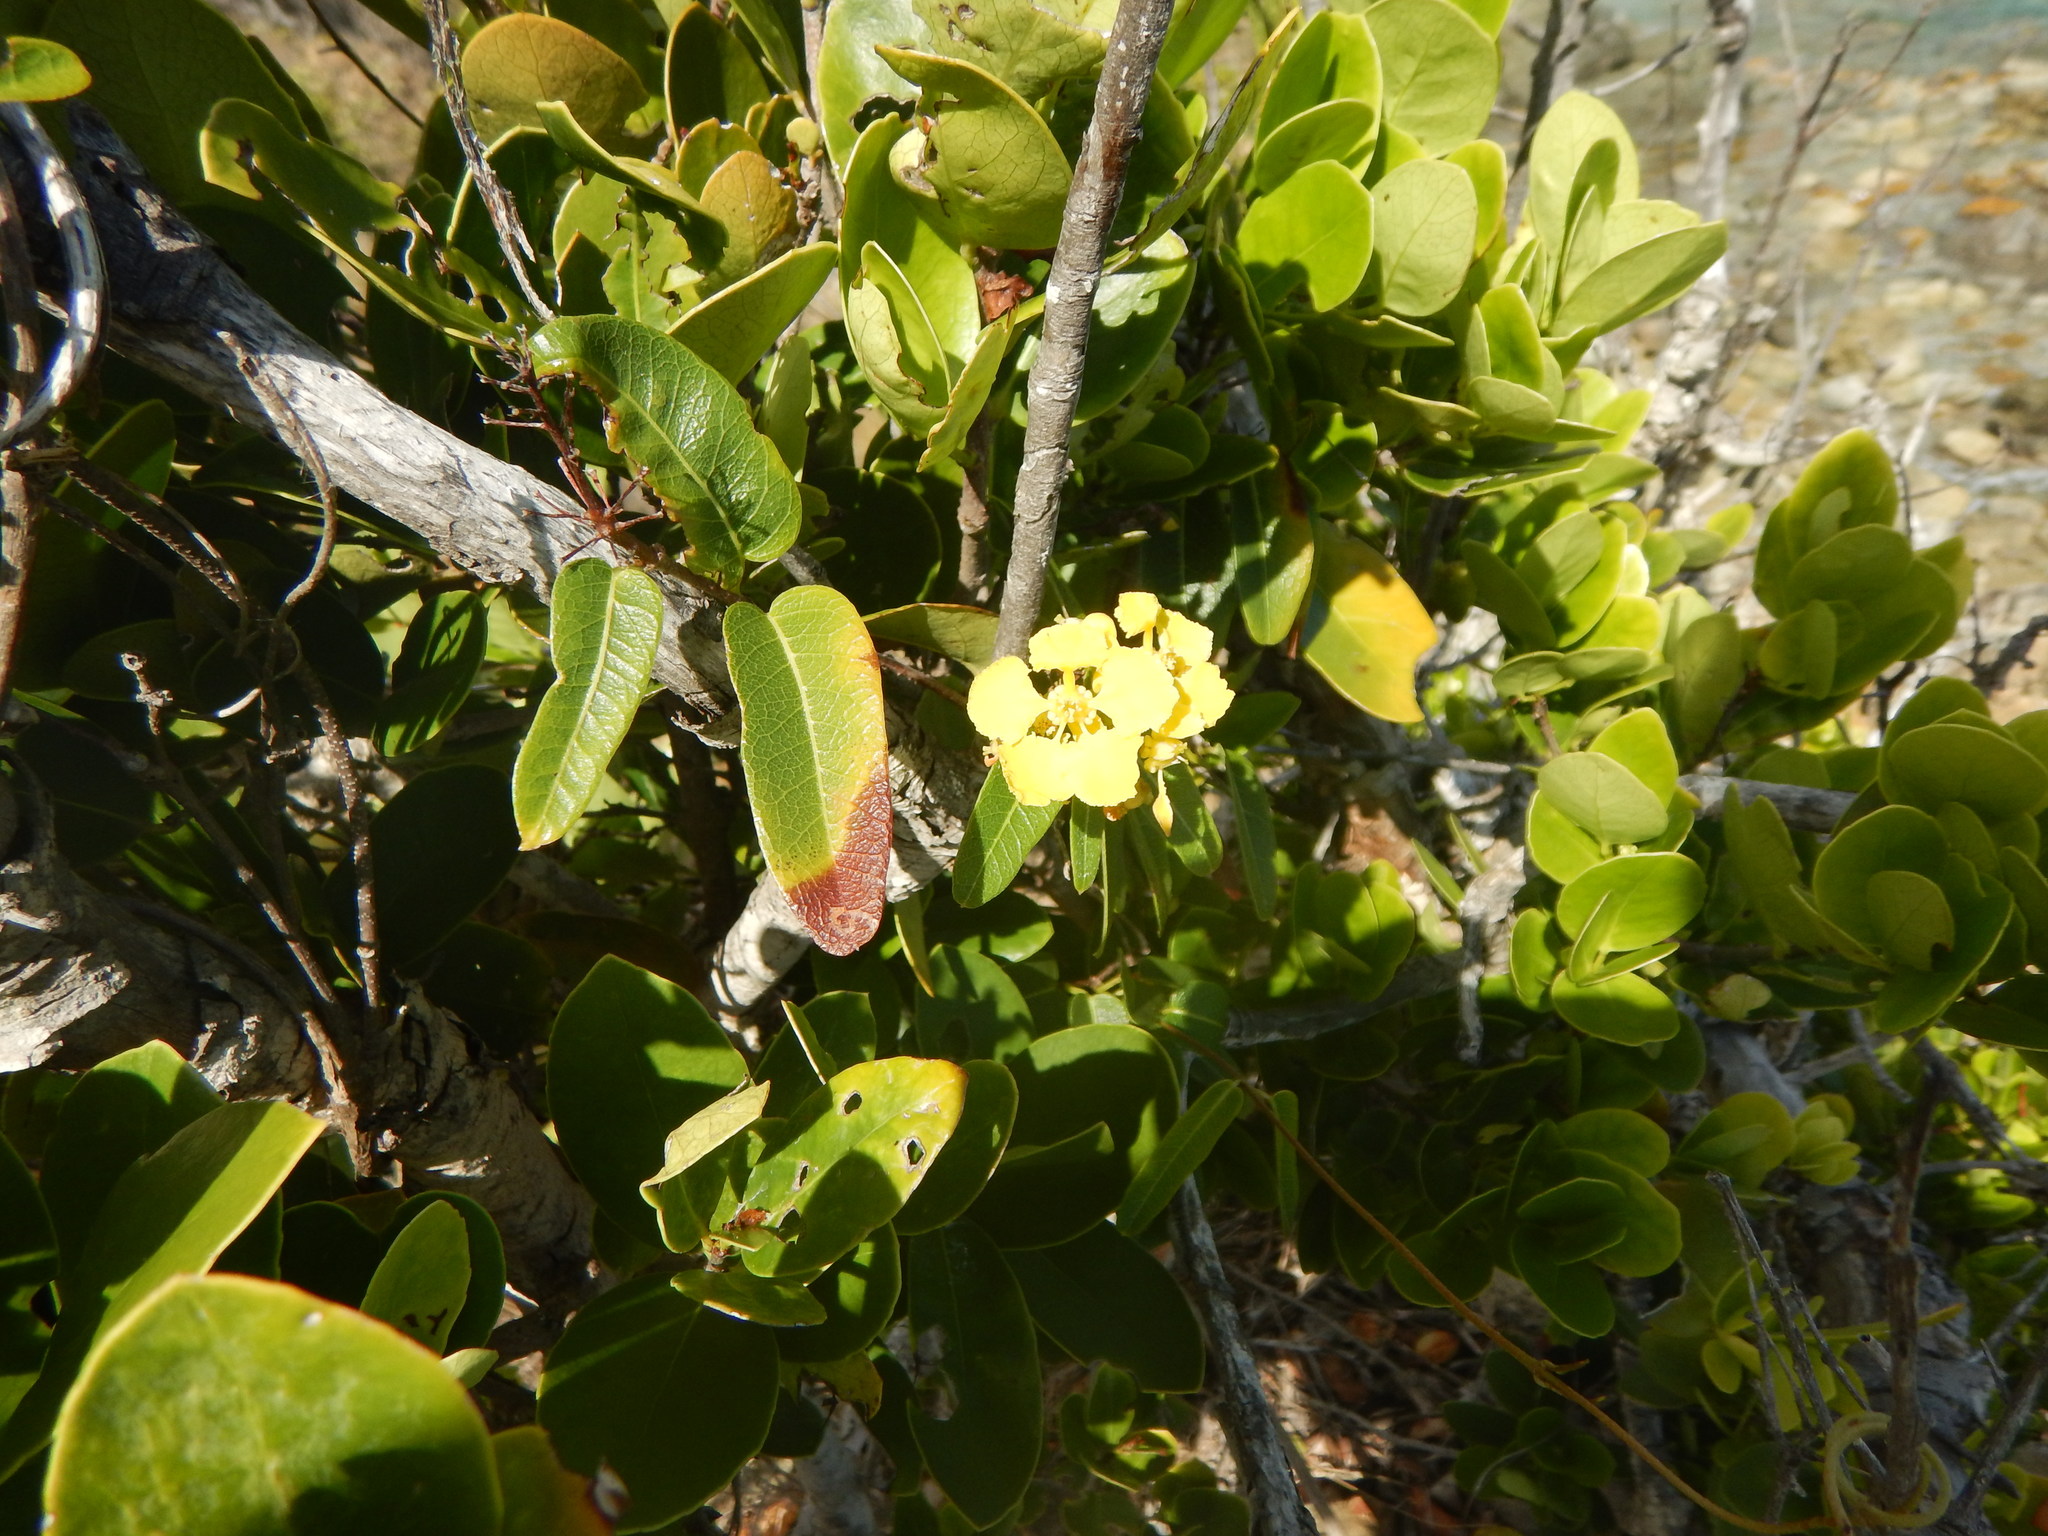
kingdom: Plantae
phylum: Tracheophyta
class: Magnoliopsida
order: Malpighiales
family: Malpighiaceae
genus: Stigmaphyllon
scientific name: Stigmaphyllon emarginatum
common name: Monarch amazonvine
